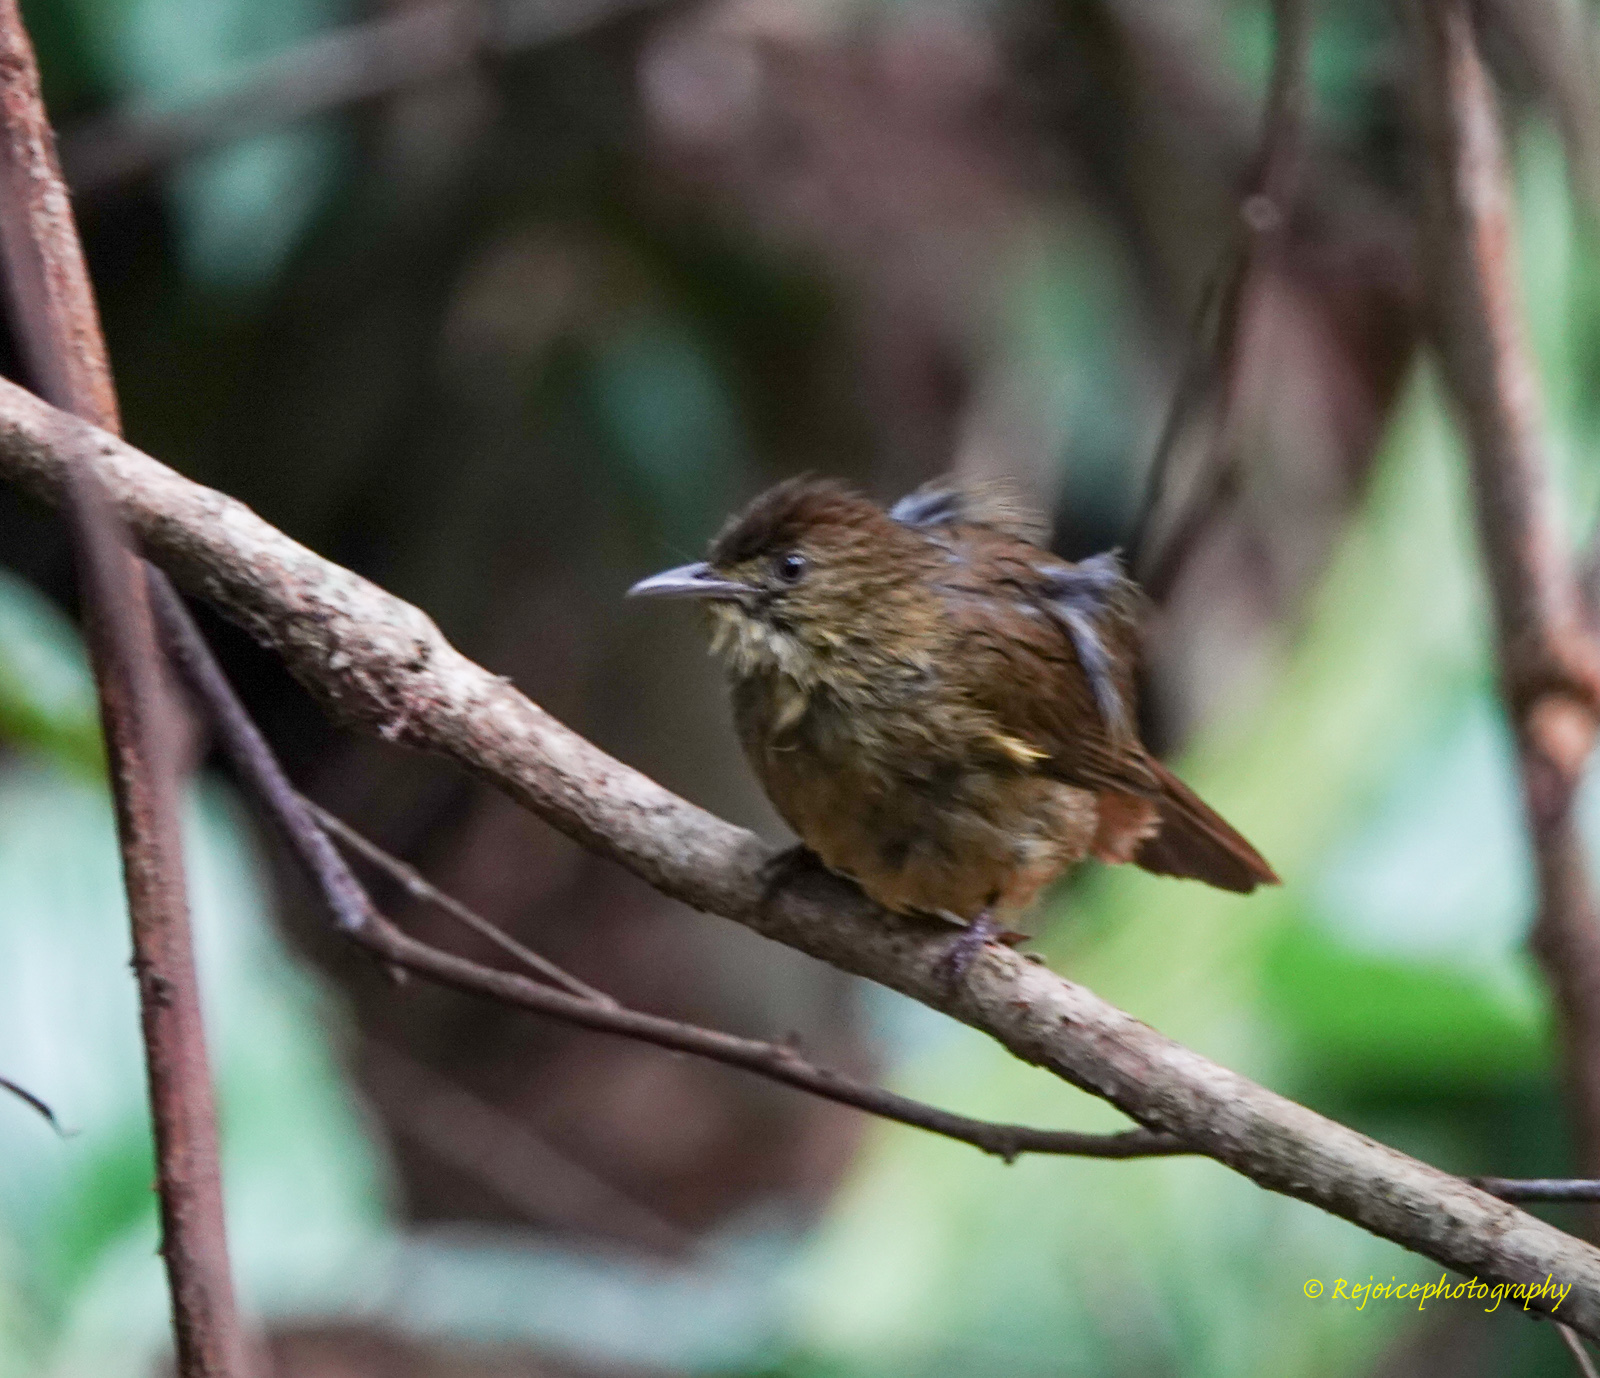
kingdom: Animalia
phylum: Chordata
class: Aves
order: Passeriformes
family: Pycnonotidae
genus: Iole
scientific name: Iole virescens
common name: Olive bulbul
